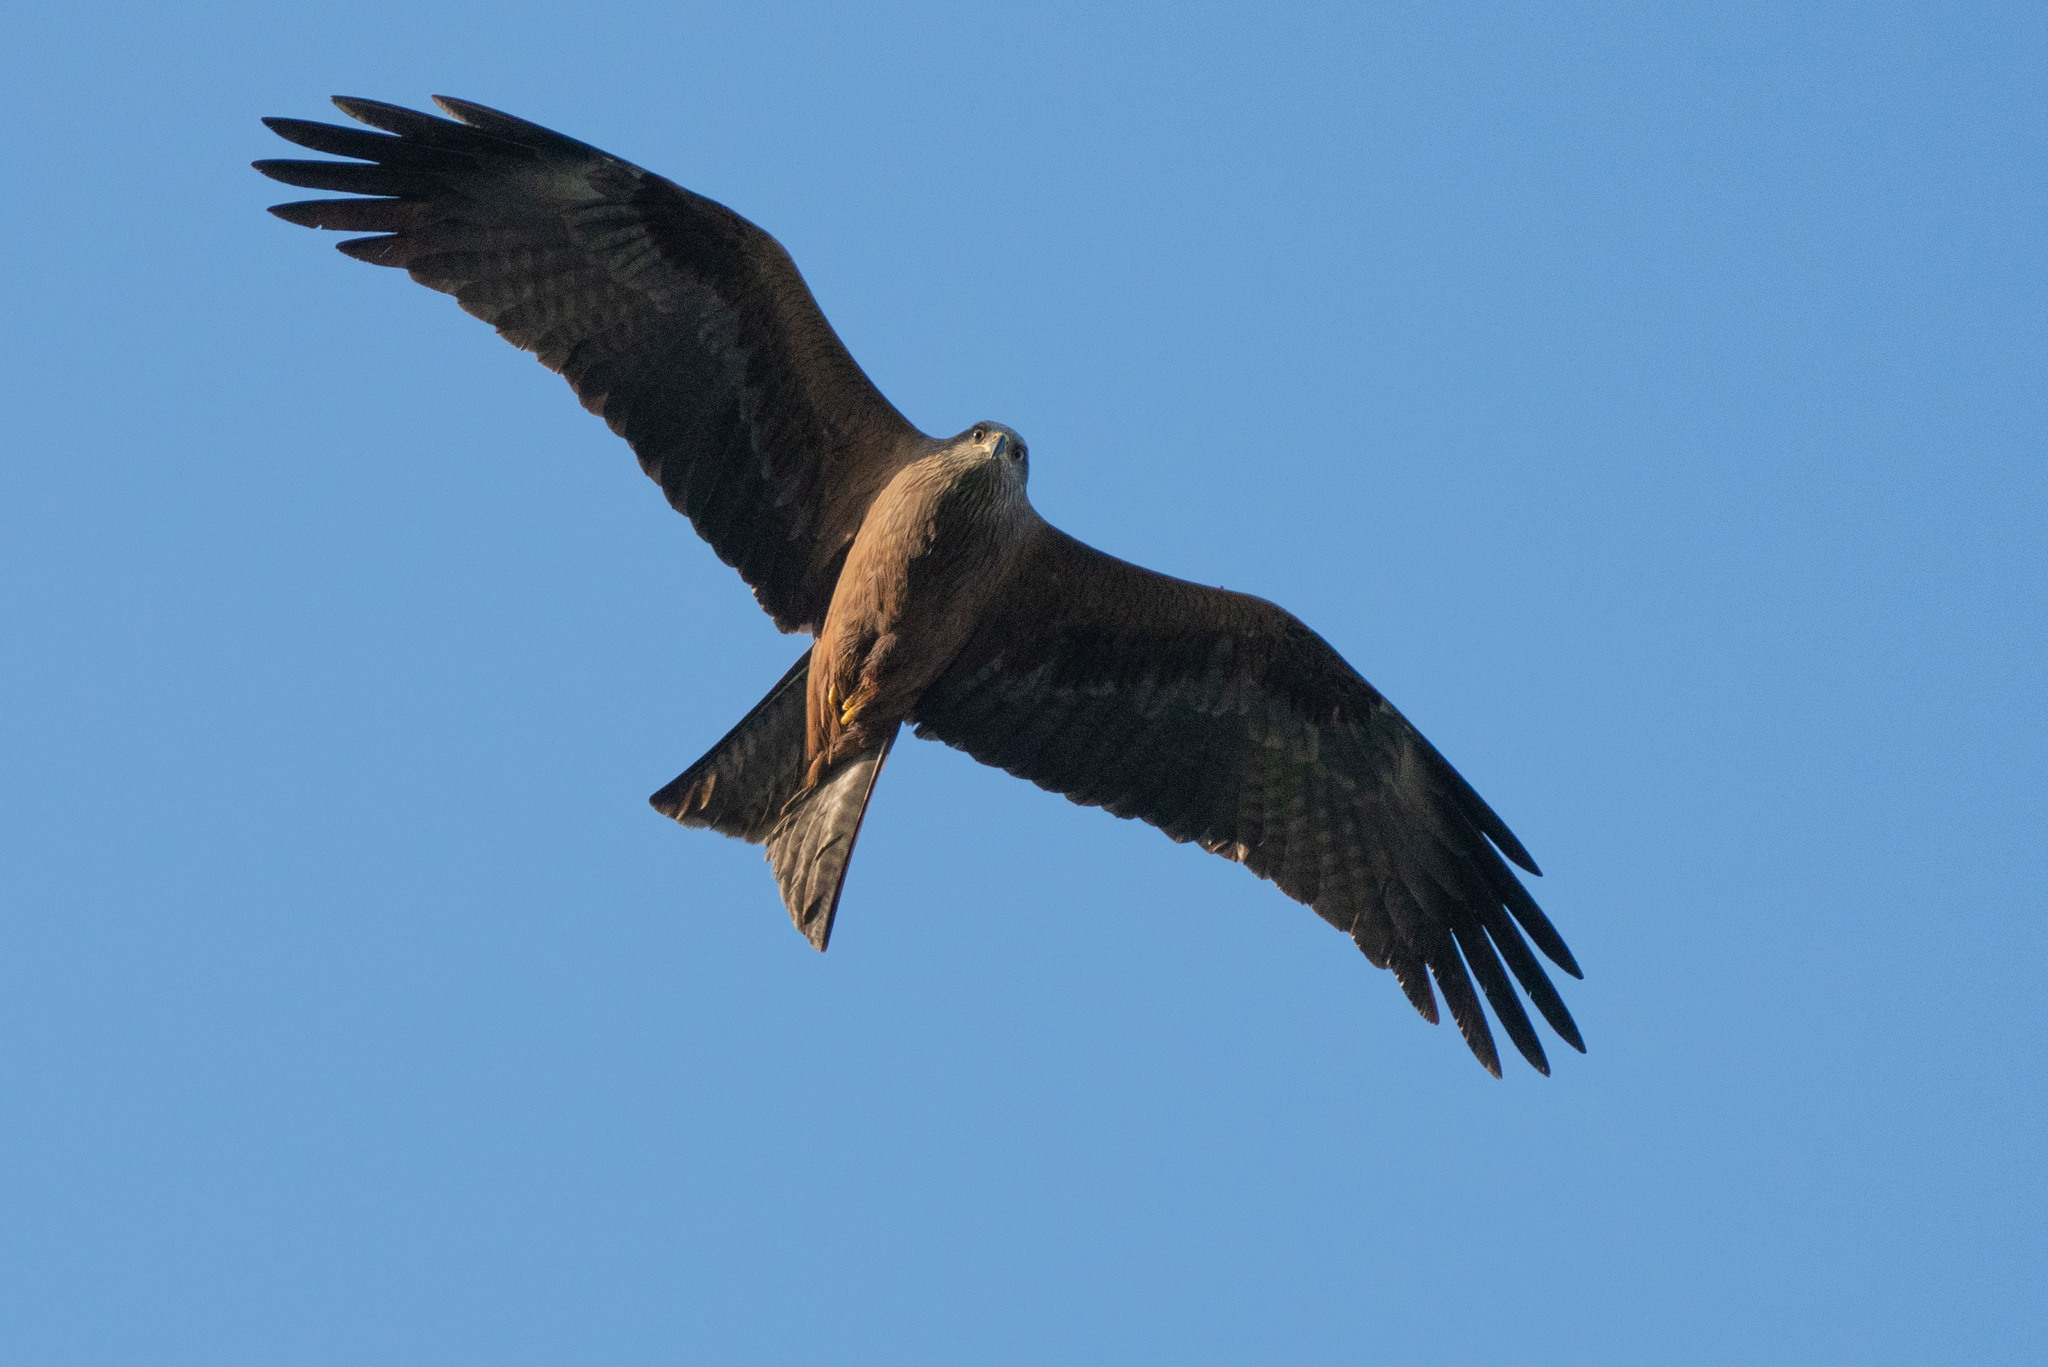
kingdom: Animalia
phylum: Chordata
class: Aves
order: Accipitriformes
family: Accipitridae
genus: Milvus
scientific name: Milvus migrans
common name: Black kite
